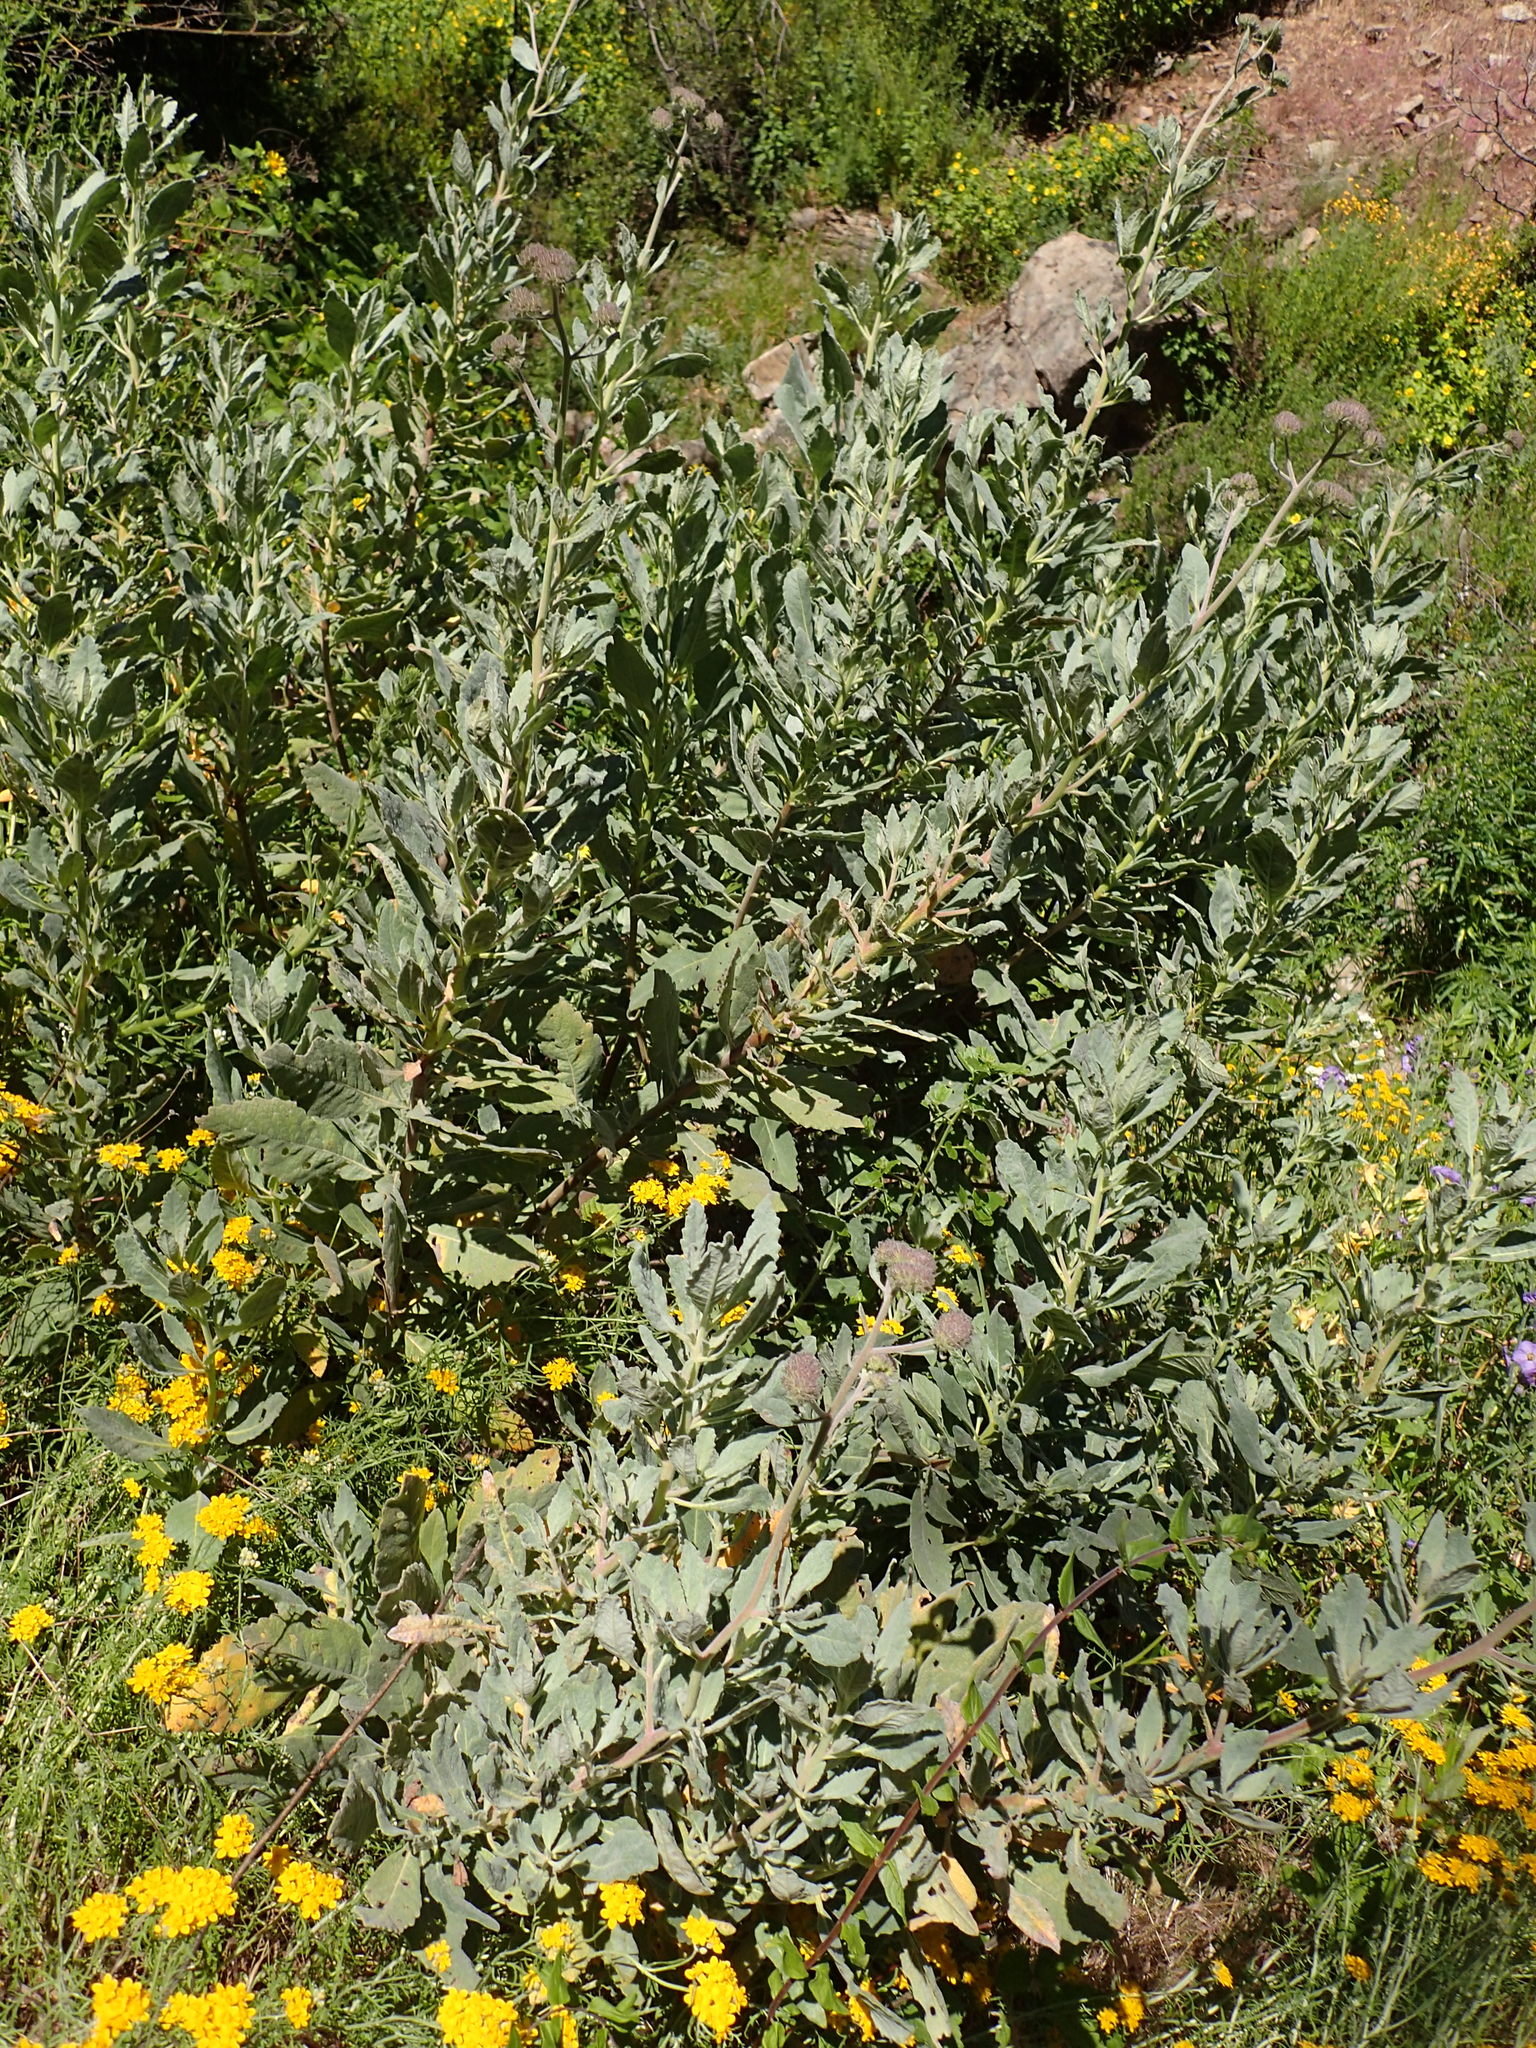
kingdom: Plantae
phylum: Tracheophyta
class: Magnoliopsida
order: Boraginales
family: Namaceae
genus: Eriodictyon
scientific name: Eriodictyon traskiae
